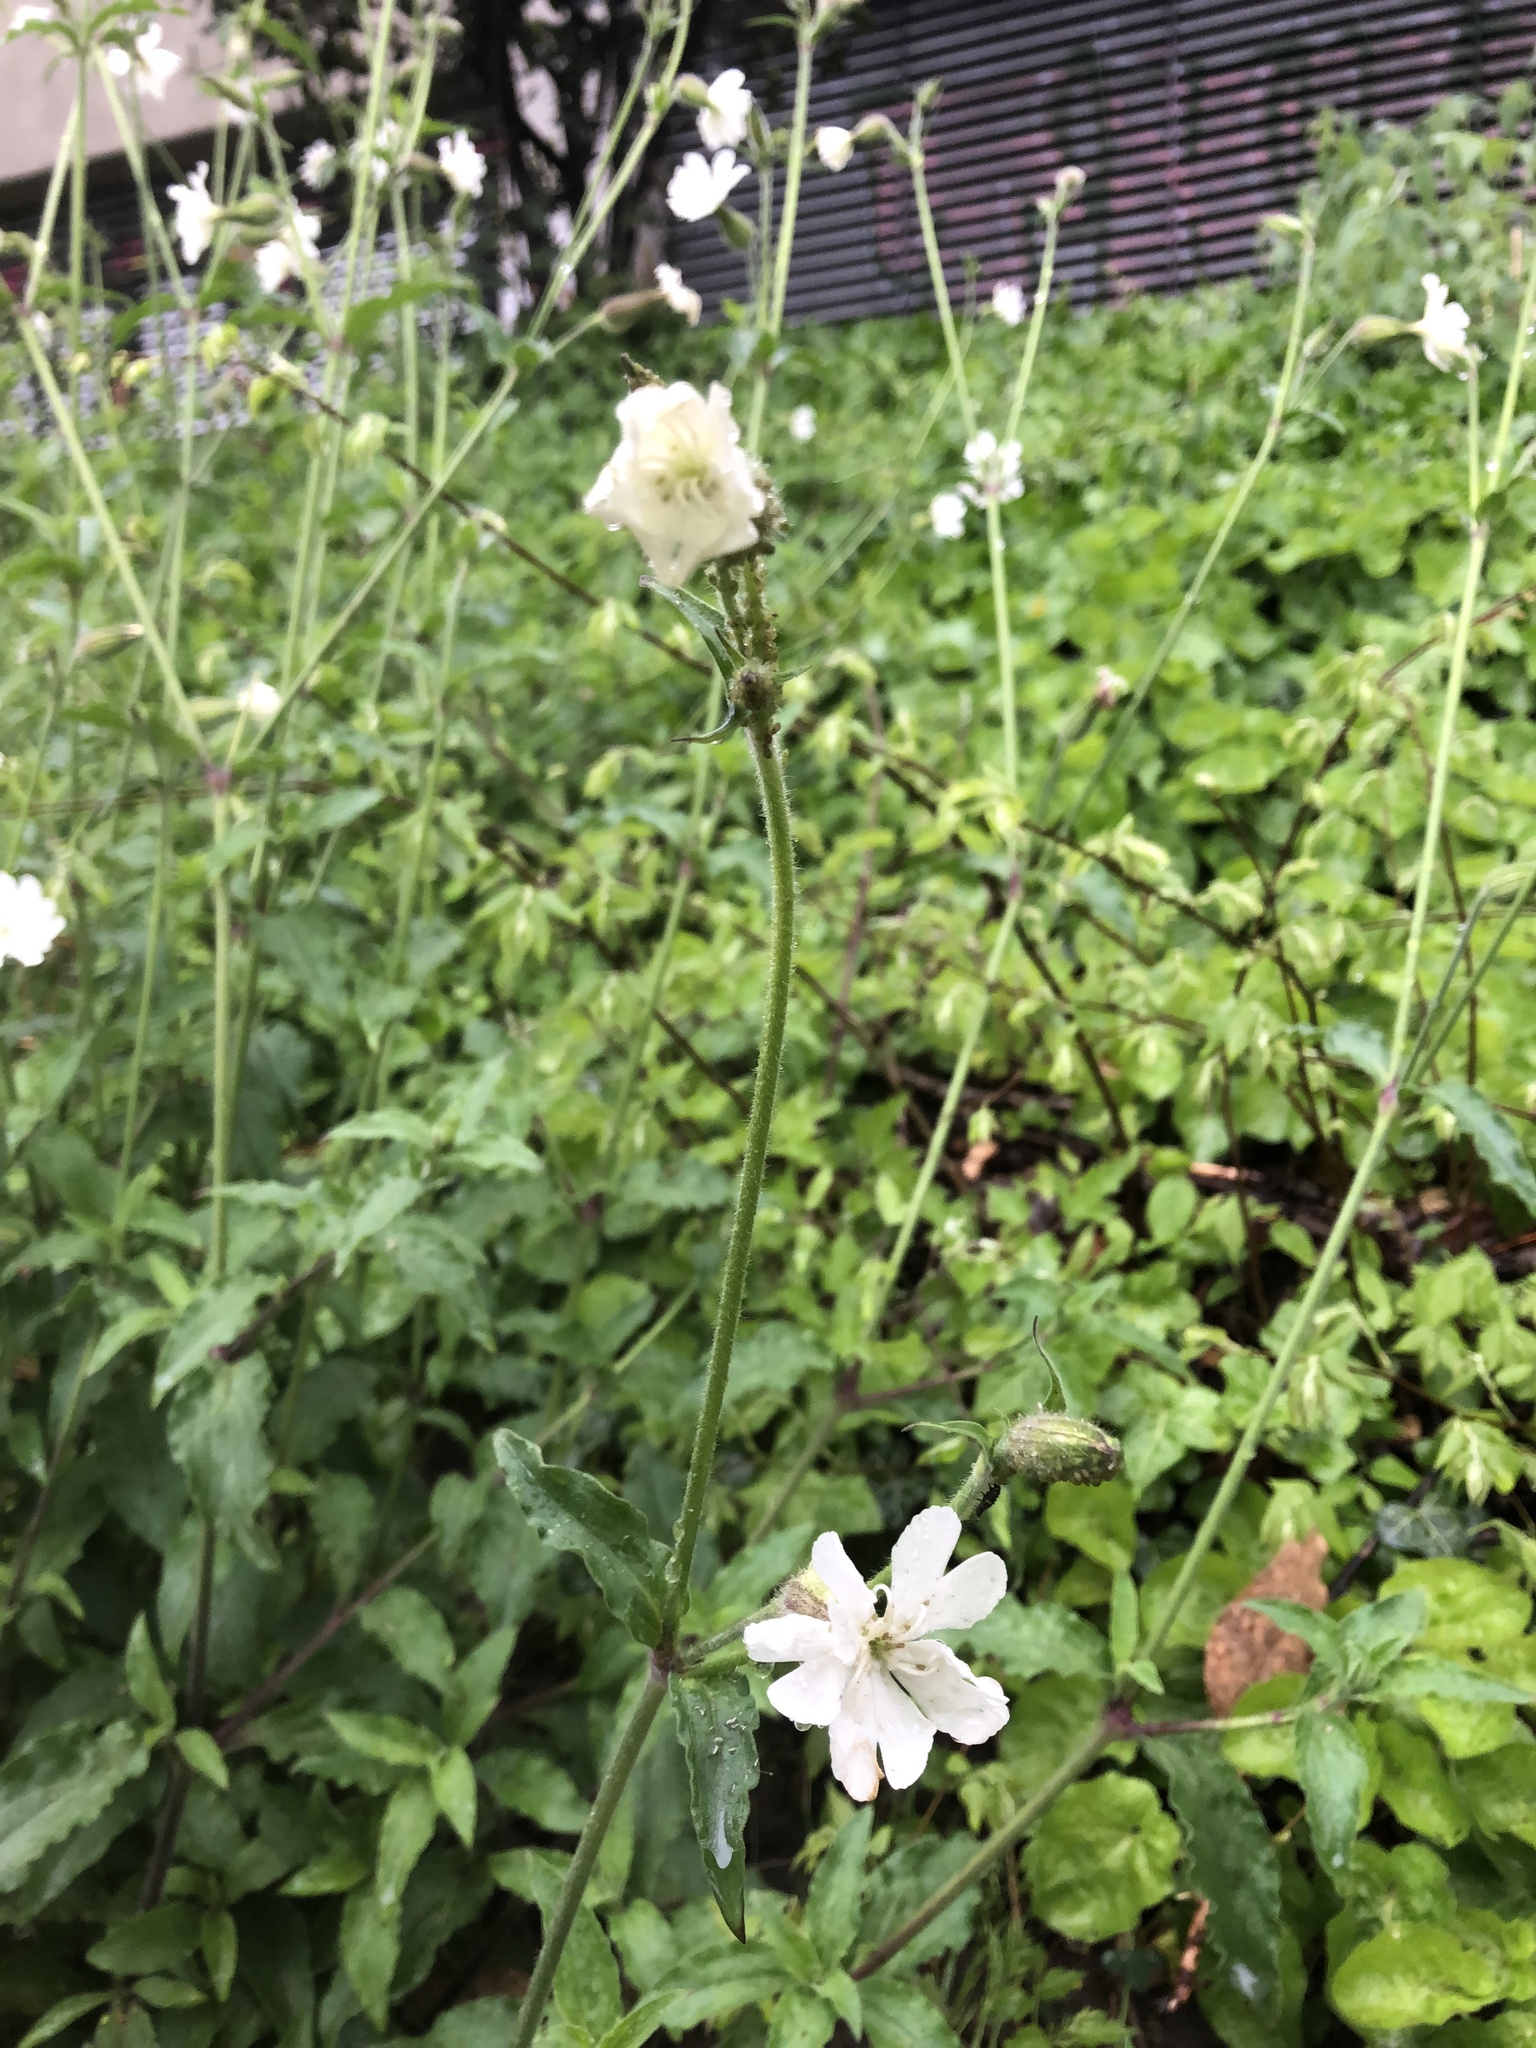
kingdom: Plantae
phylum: Tracheophyta
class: Magnoliopsida
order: Caryophyllales
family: Caryophyllaceae
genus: Silene
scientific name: Silene latifolia
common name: White campion
